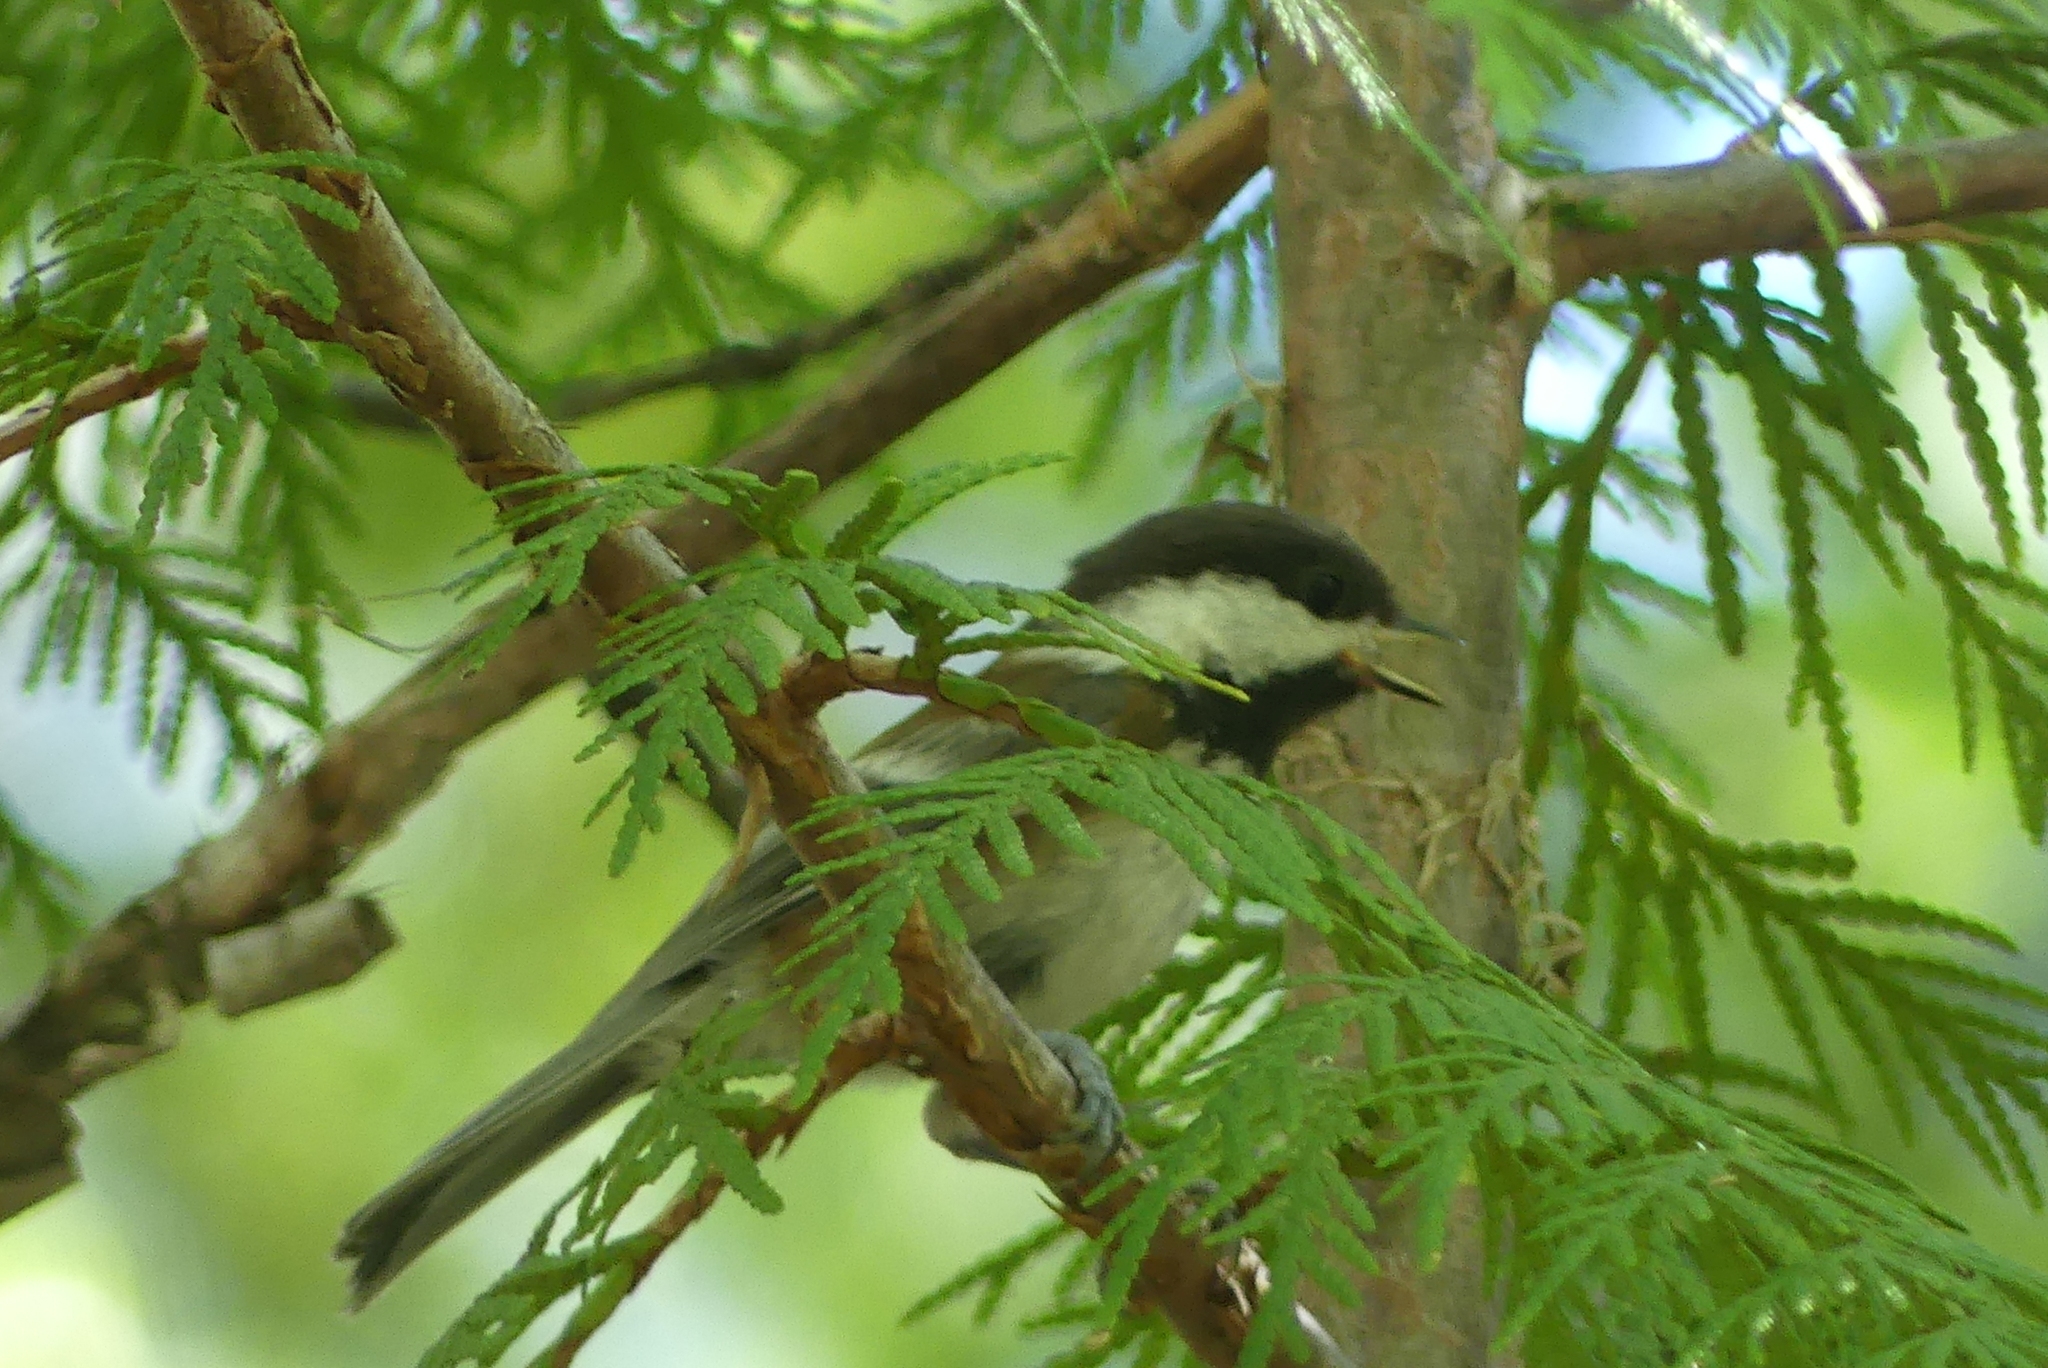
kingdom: Animalia
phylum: Chordata
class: Aves
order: Passeriformes
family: Paridae
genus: Poecile
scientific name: Poecile rufescens
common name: Chestnut-backed chickadee
